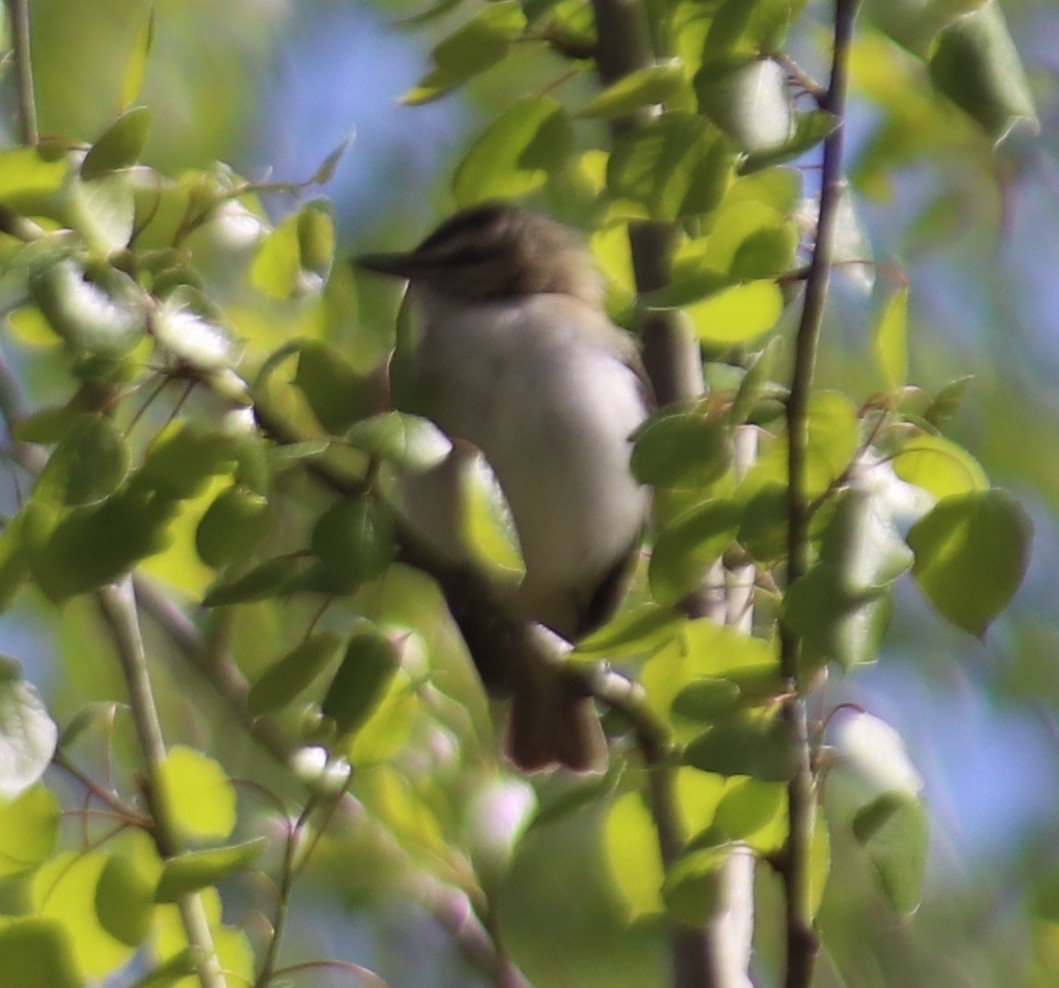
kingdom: Animalia
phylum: Chordata
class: Aves
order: Passeriformes
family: Vireonidae
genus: Vireo
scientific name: Vireo olivaceus
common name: Red-eyed vireo
